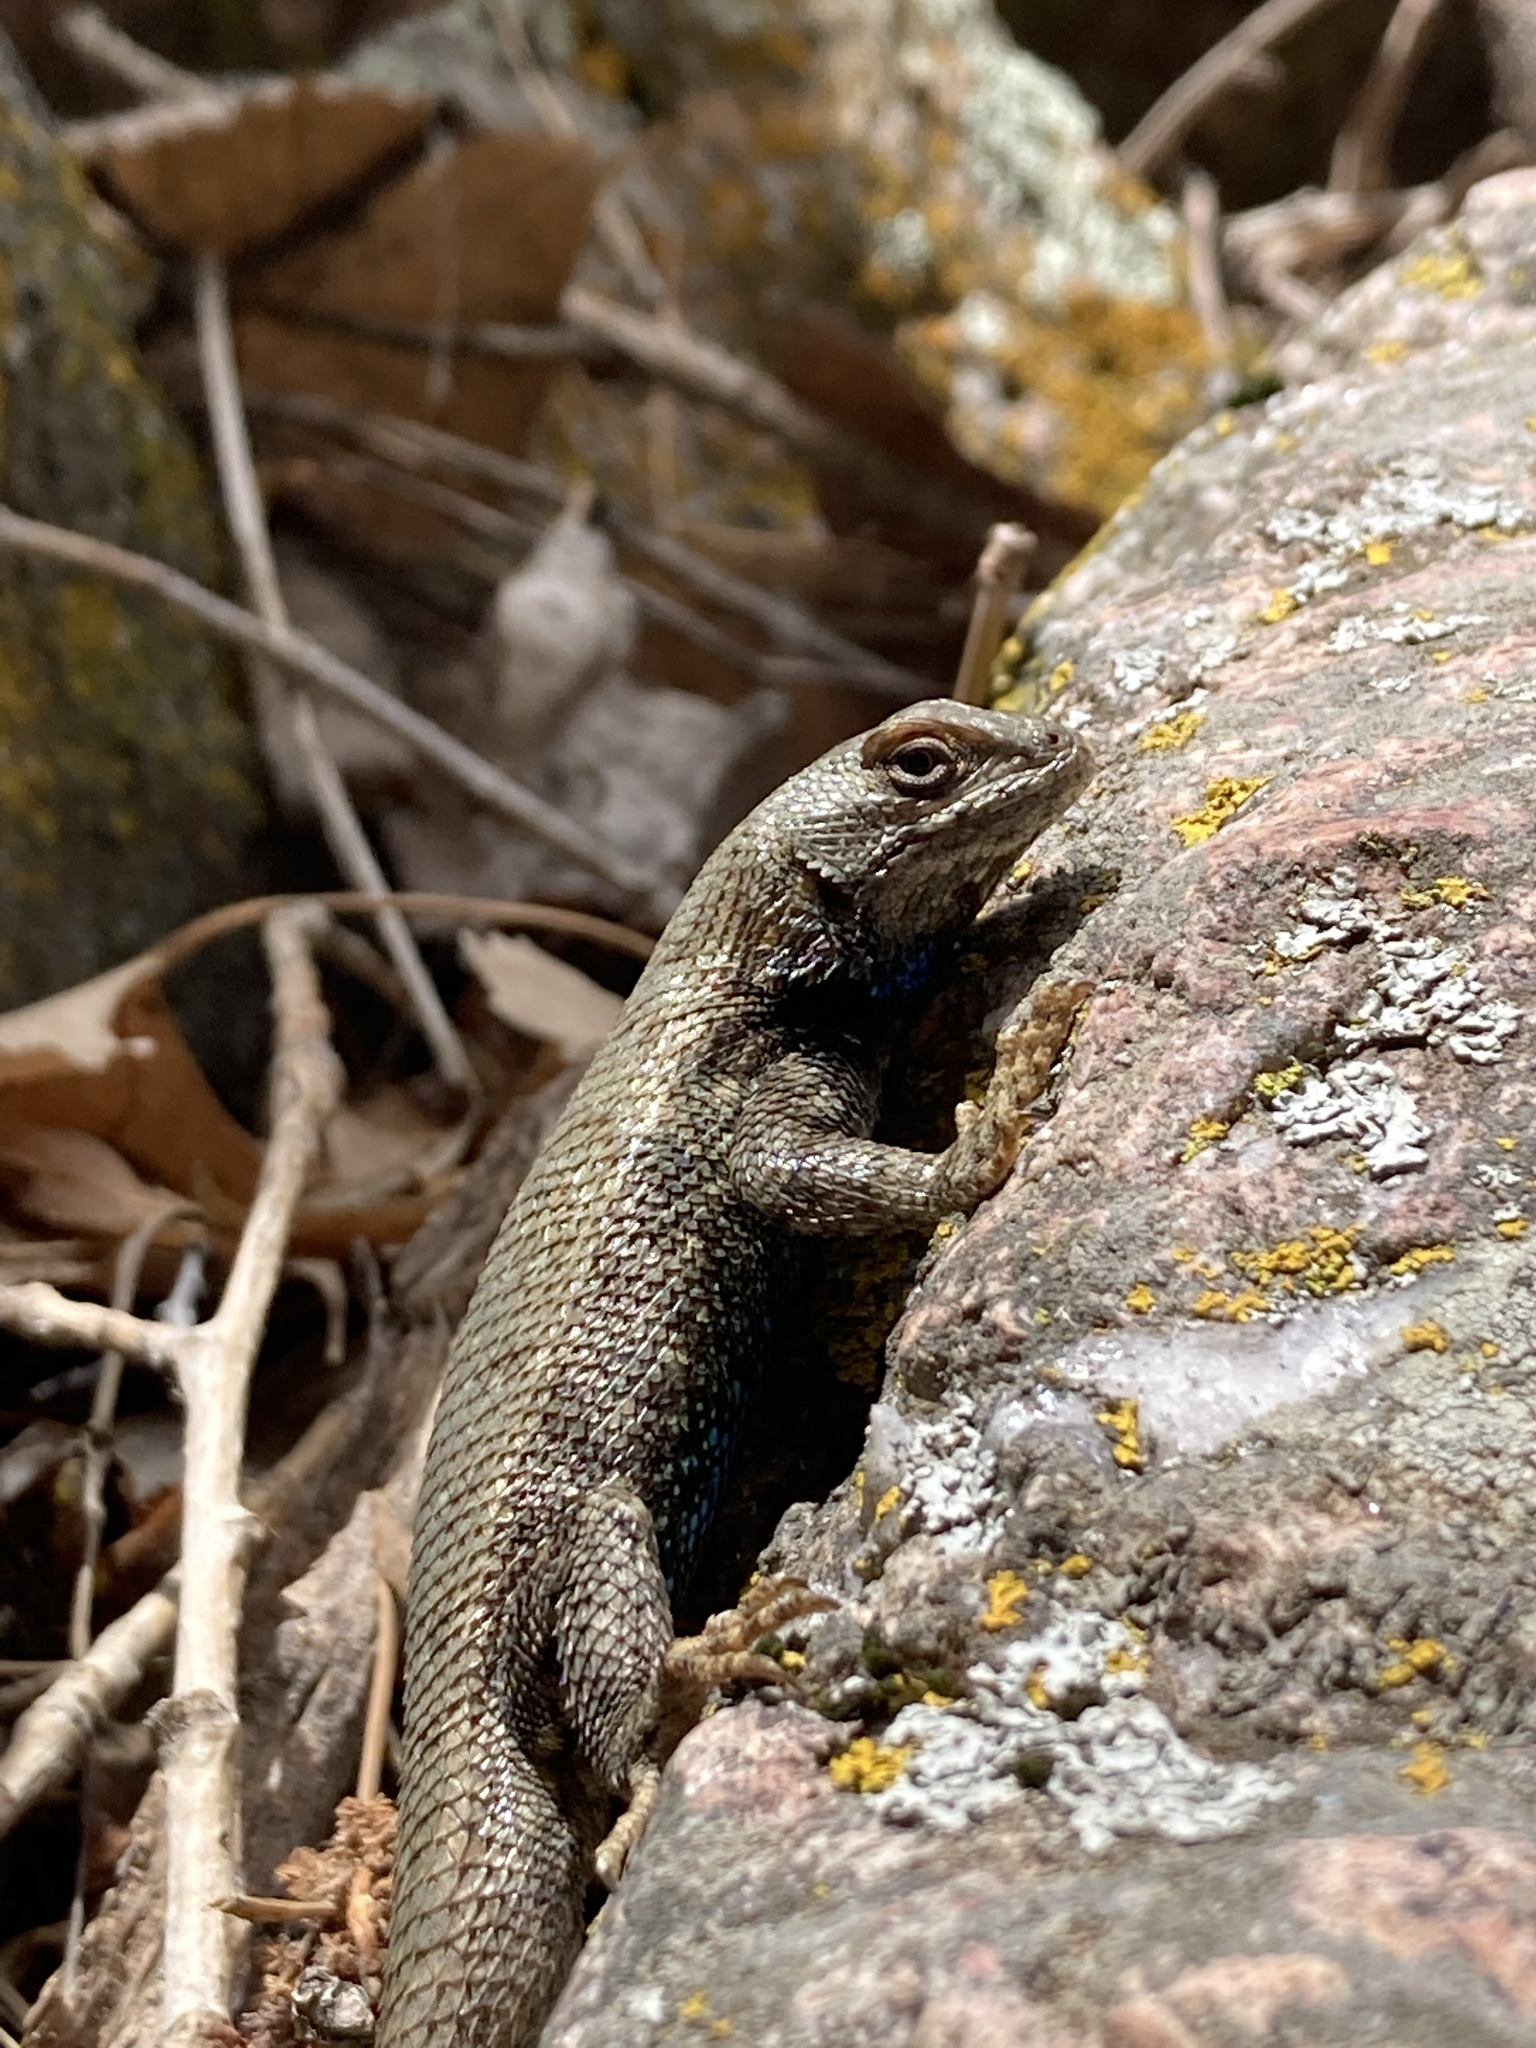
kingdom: Animalia
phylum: Chordata
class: Squamata
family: Phrynosomatidae
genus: Sceloporus
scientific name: Sceloporus consobrinus
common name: Southern prairie lizard
